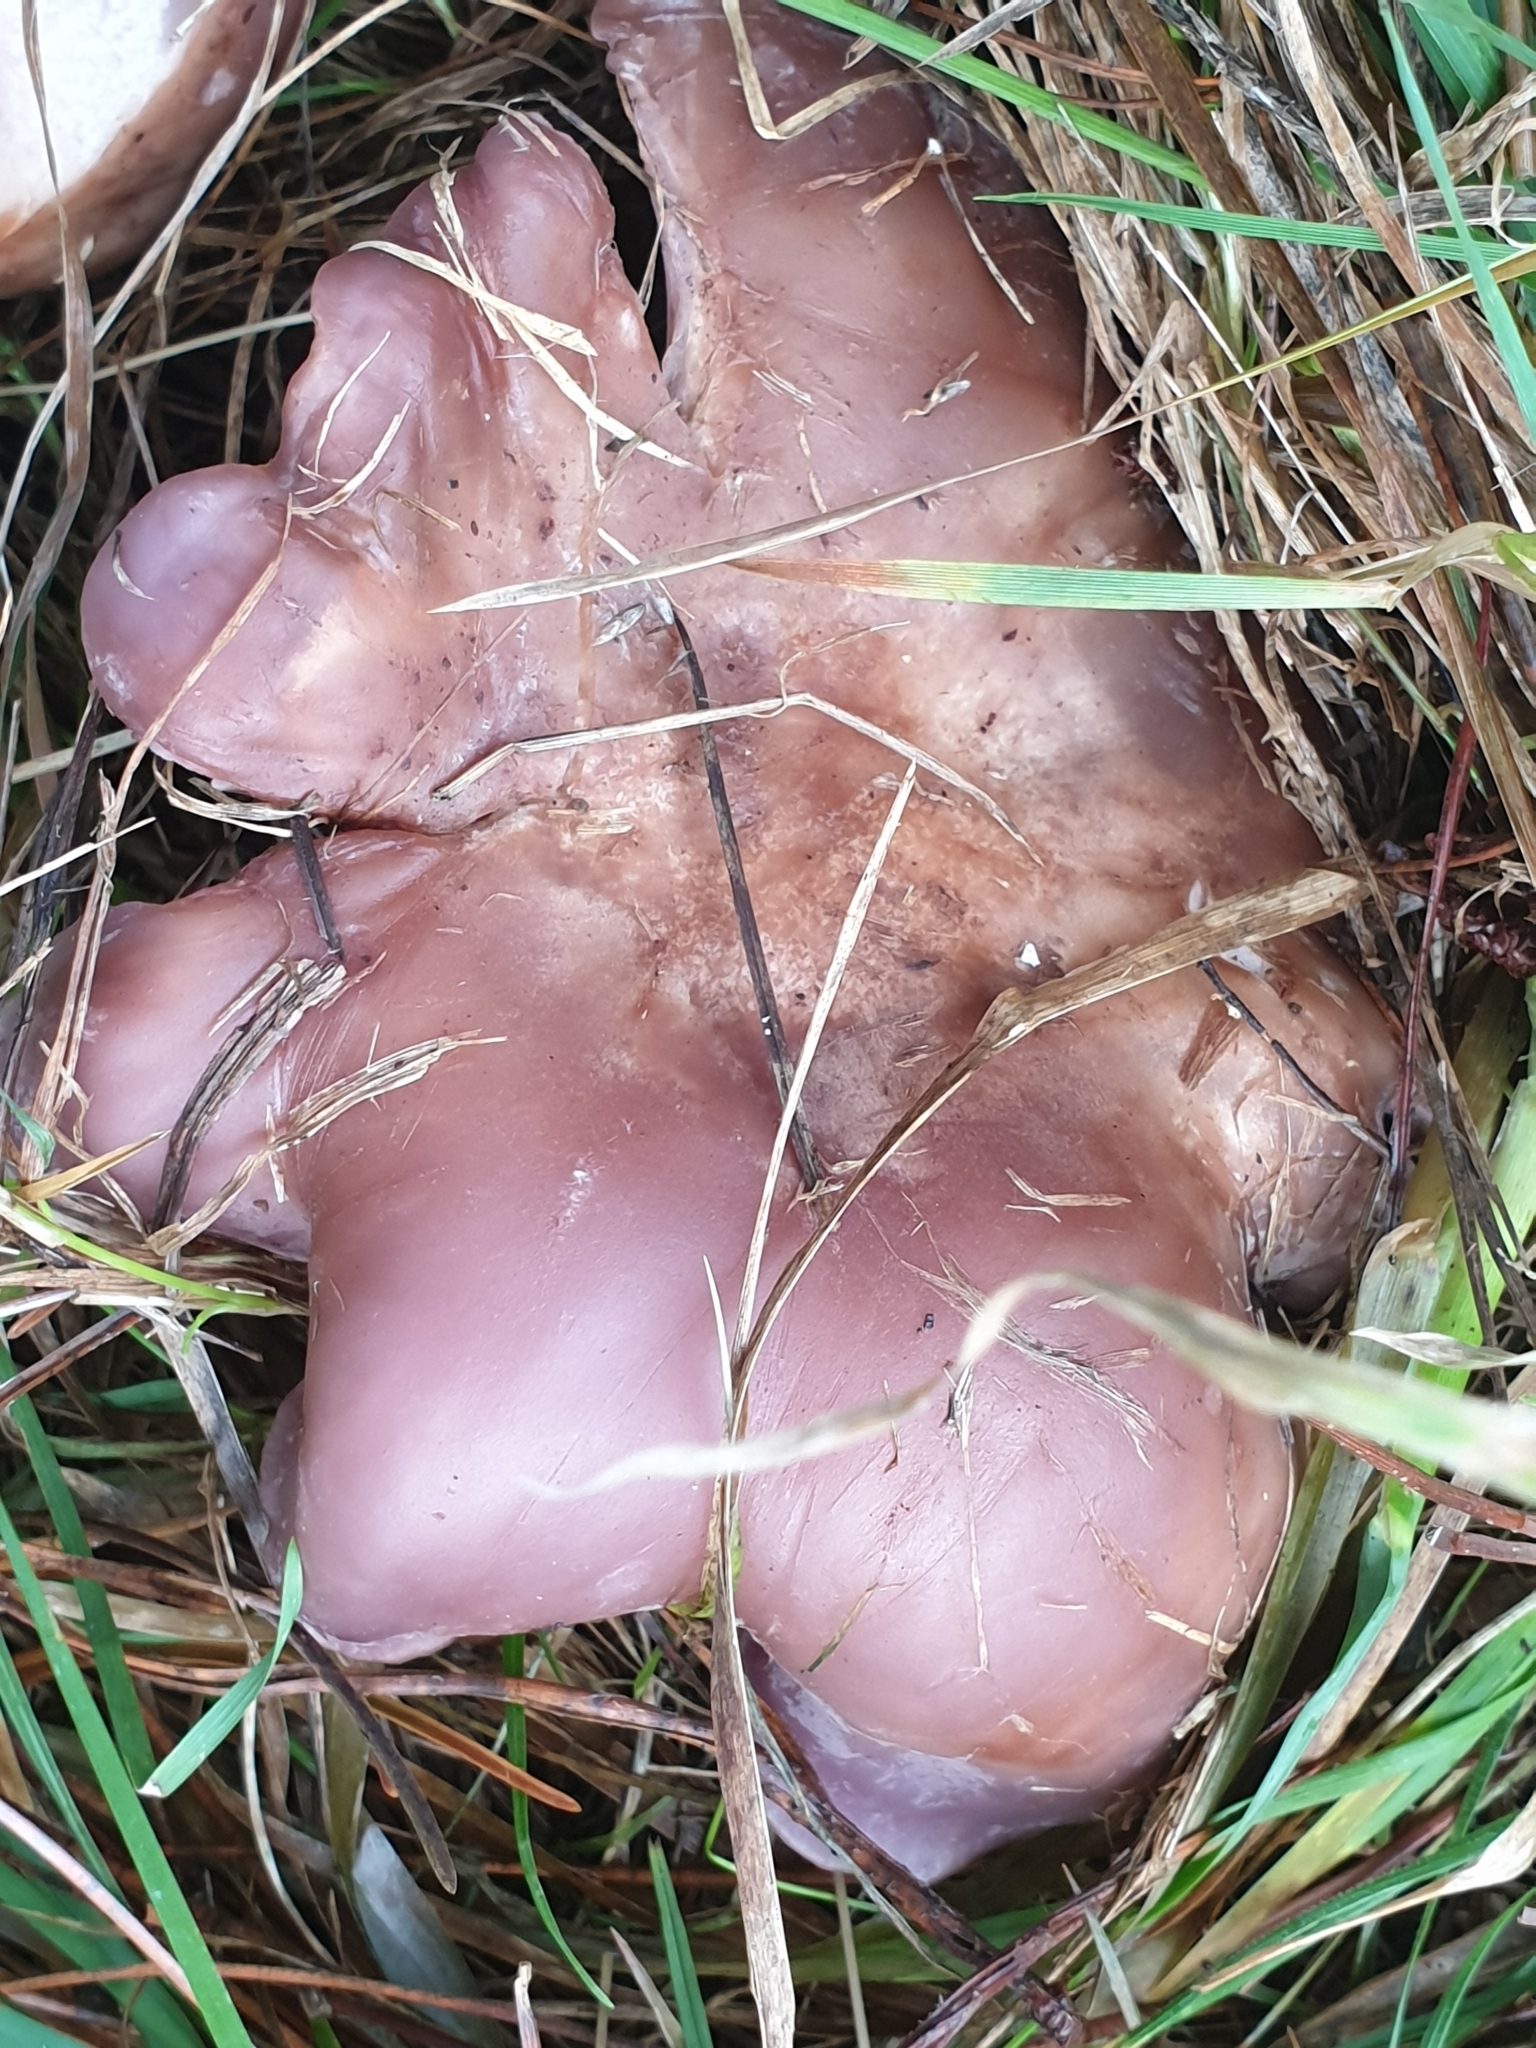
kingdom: Fungi
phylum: Basidiomycota
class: Agaricomycetes
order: Agaricales
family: Tricholomataceae
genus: Collybia
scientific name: Collybia
